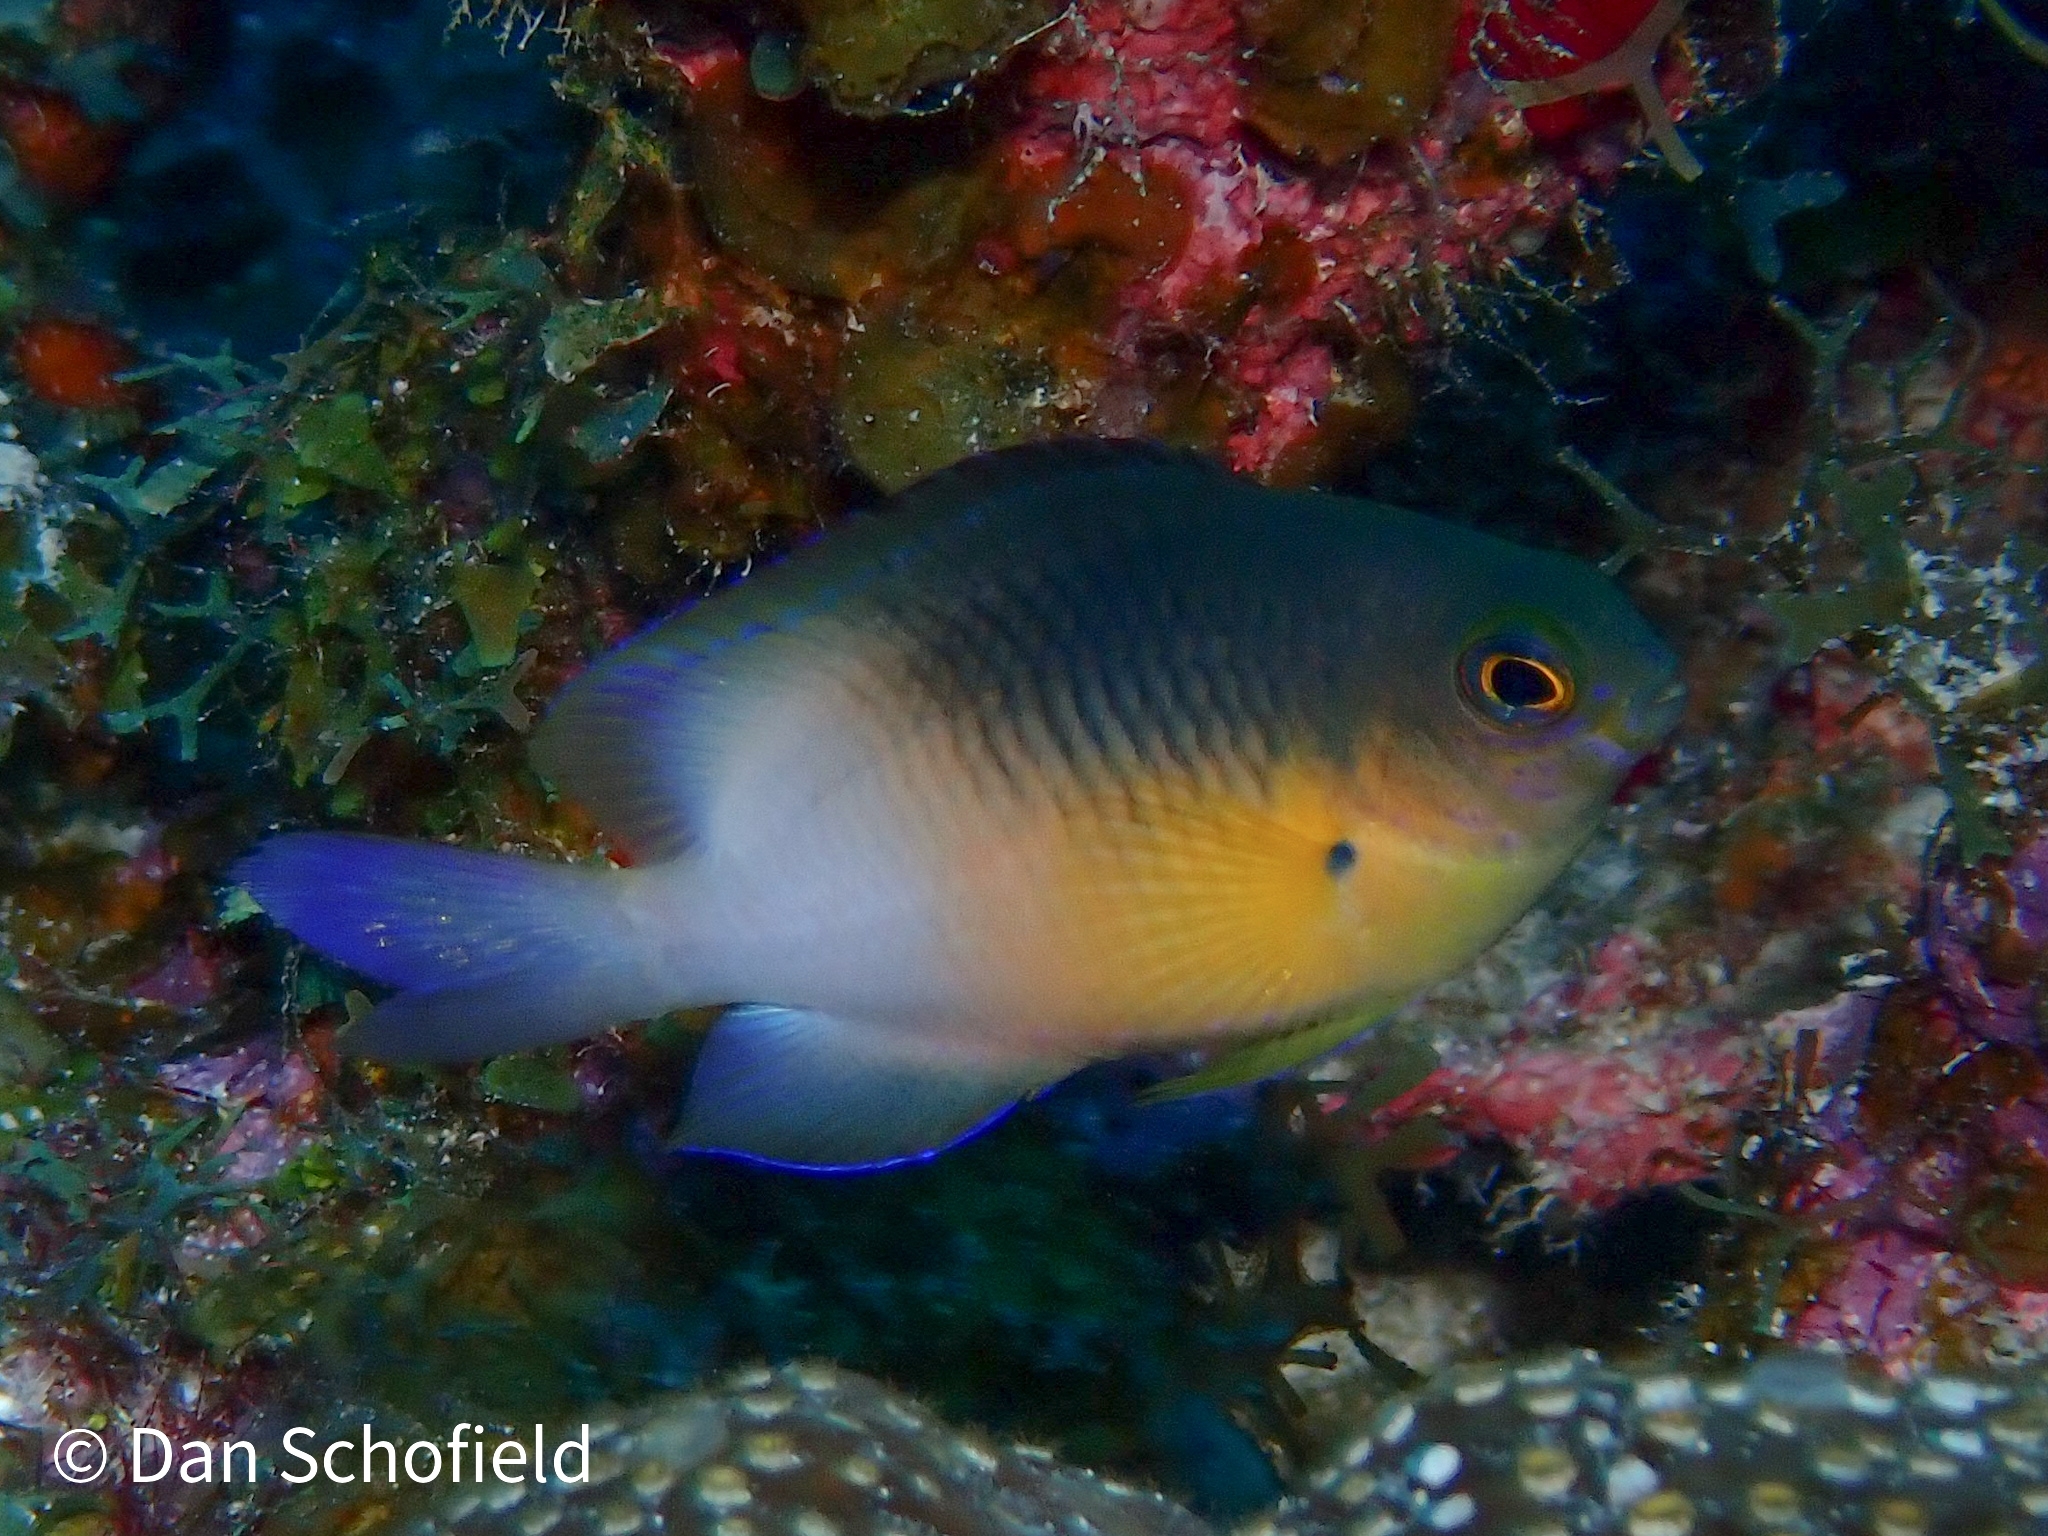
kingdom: Animalia
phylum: Chordata
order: Perciformes
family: Pomacentridae
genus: Stegastes
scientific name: Stegastes partitus
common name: Bicolor damselfish
